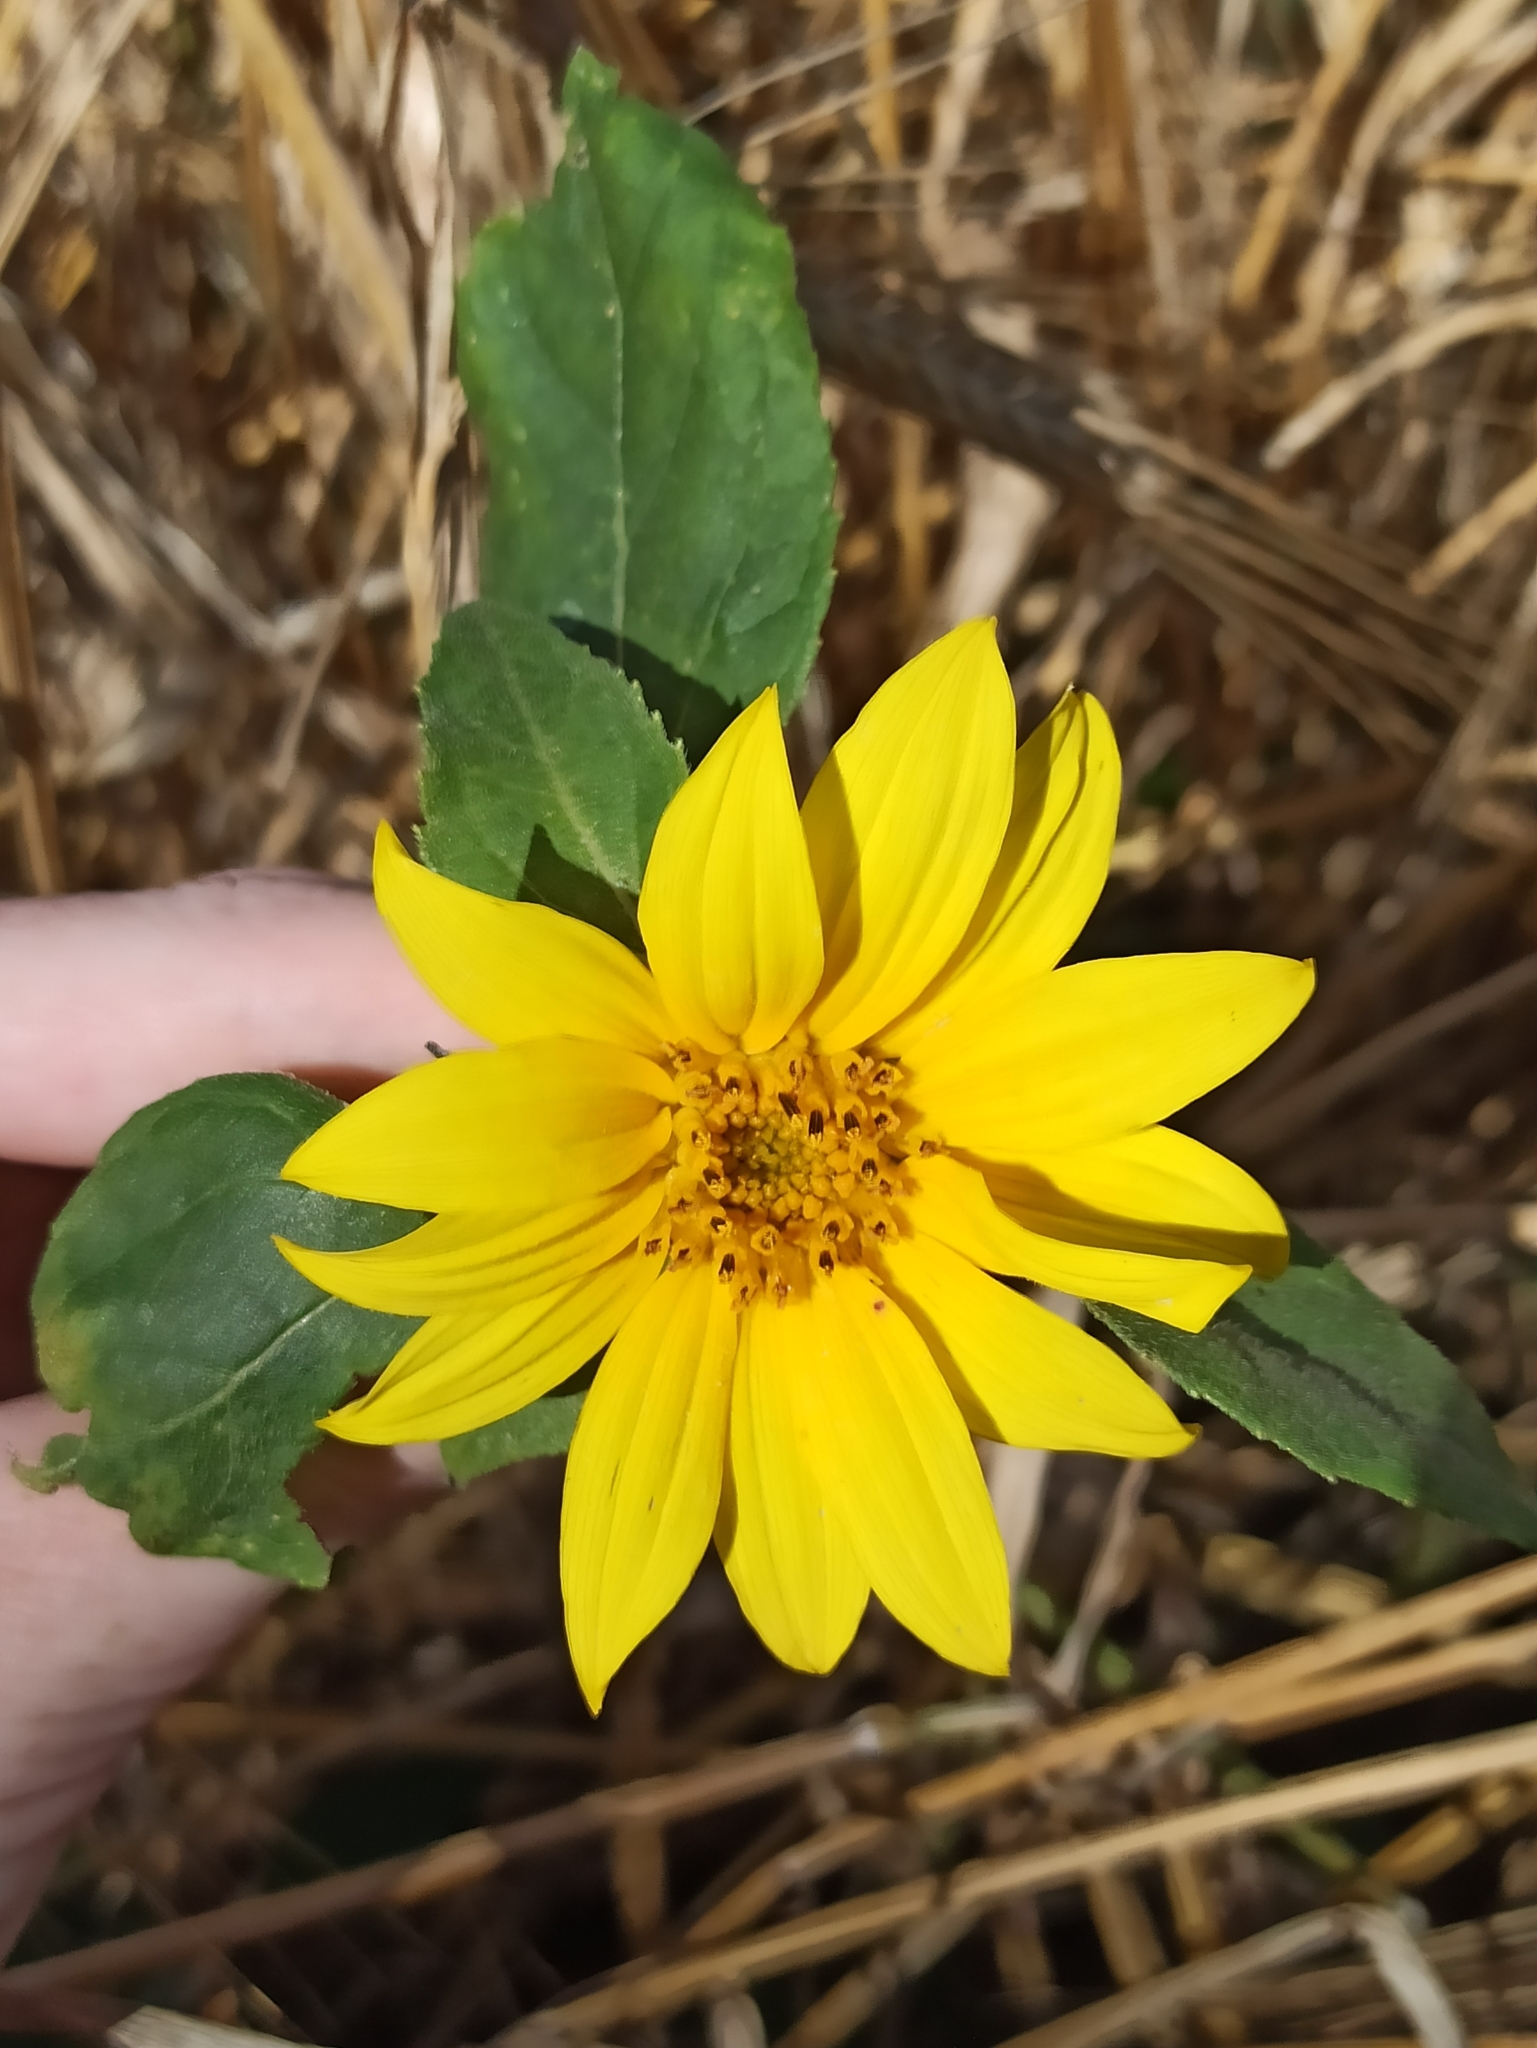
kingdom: Plantae
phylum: Tracheophyta
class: Magnoliopsida
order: Asterales
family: Asteraceae
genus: Helianthus
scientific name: Helianthus tuberosus
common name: Jerusalem artichoke
